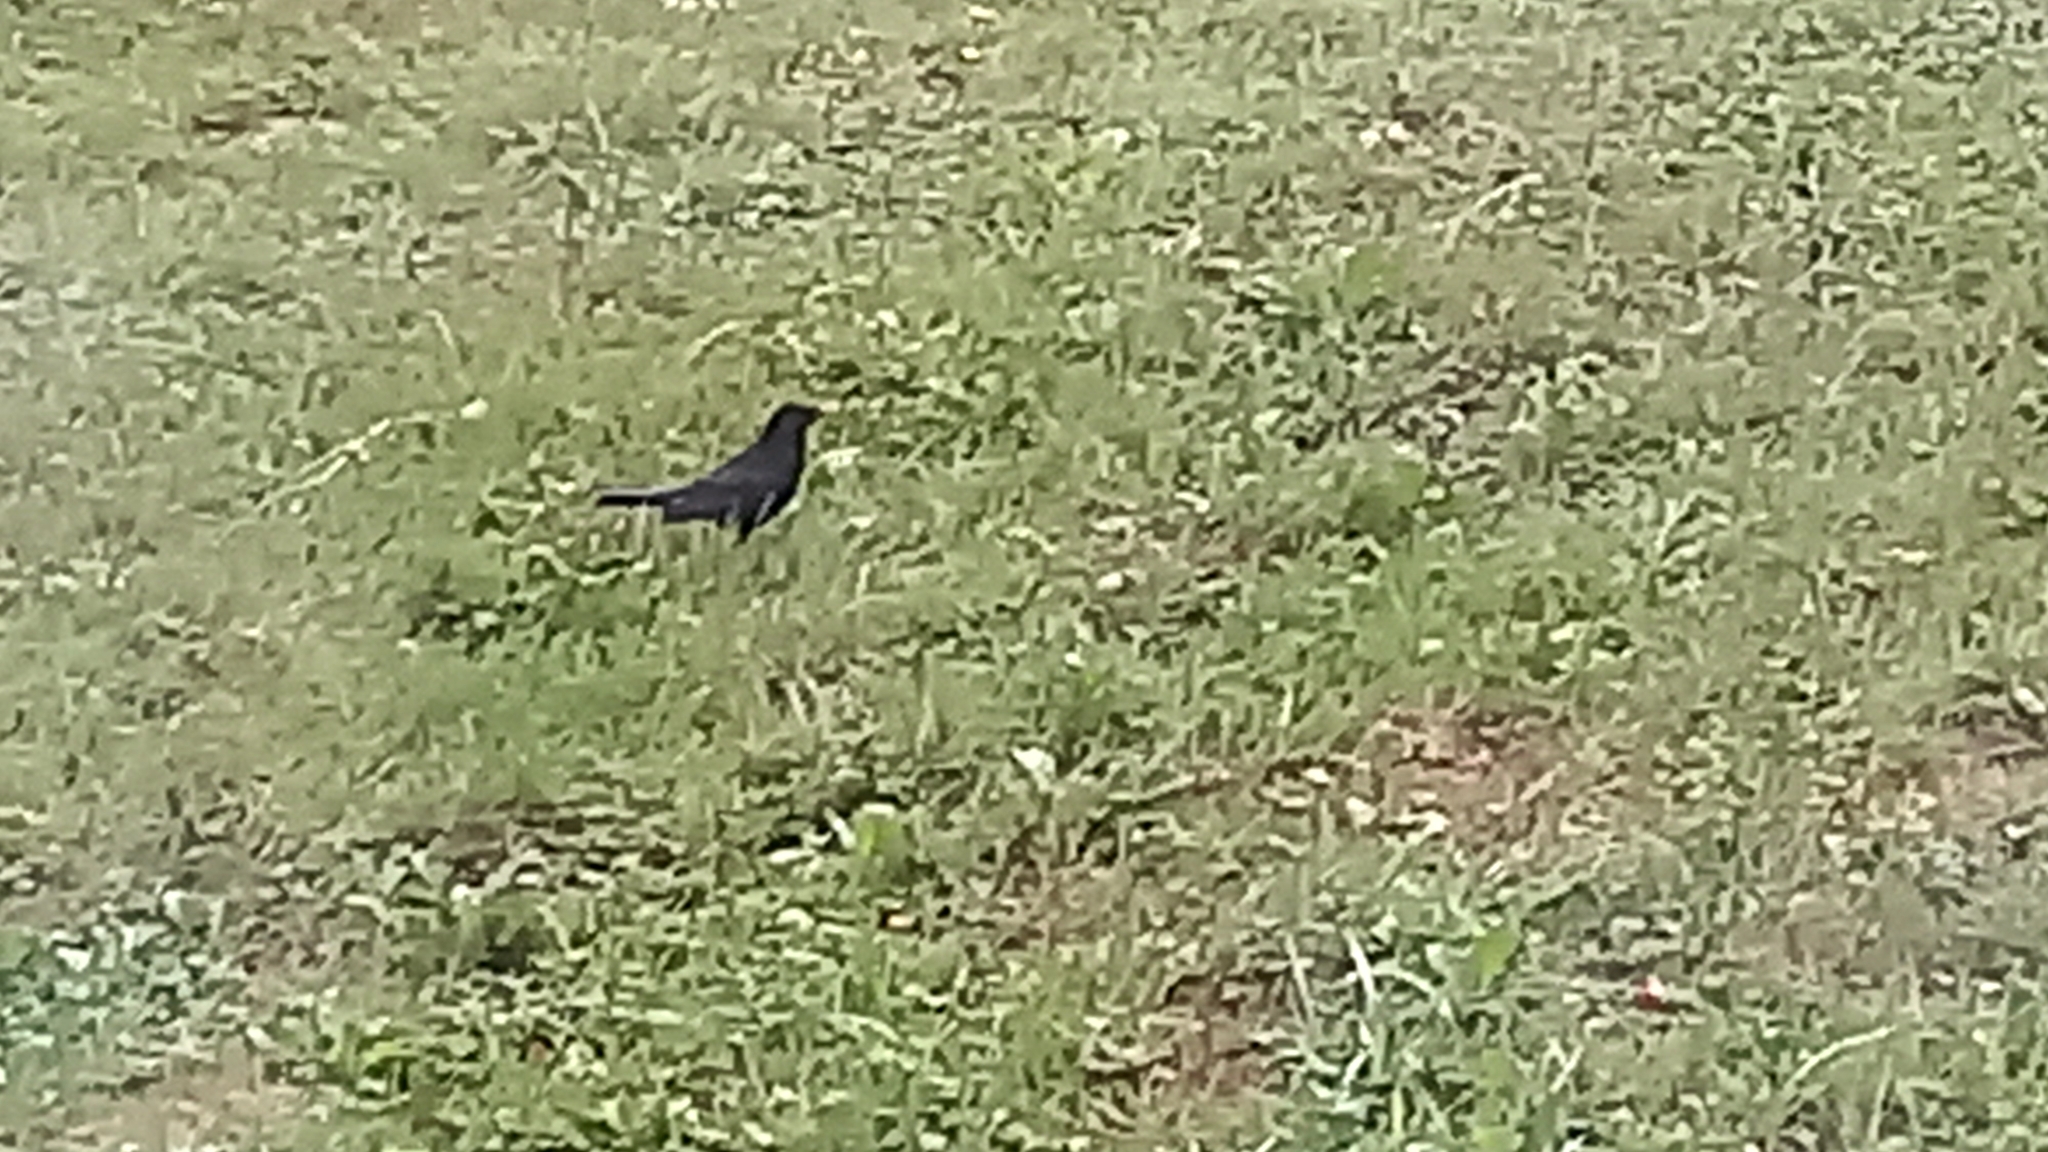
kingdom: Animalia
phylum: Chordata
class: Aves
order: Passeriformes
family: Turdidae
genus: Turdus
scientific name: Turdus merula
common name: Common blackbird
